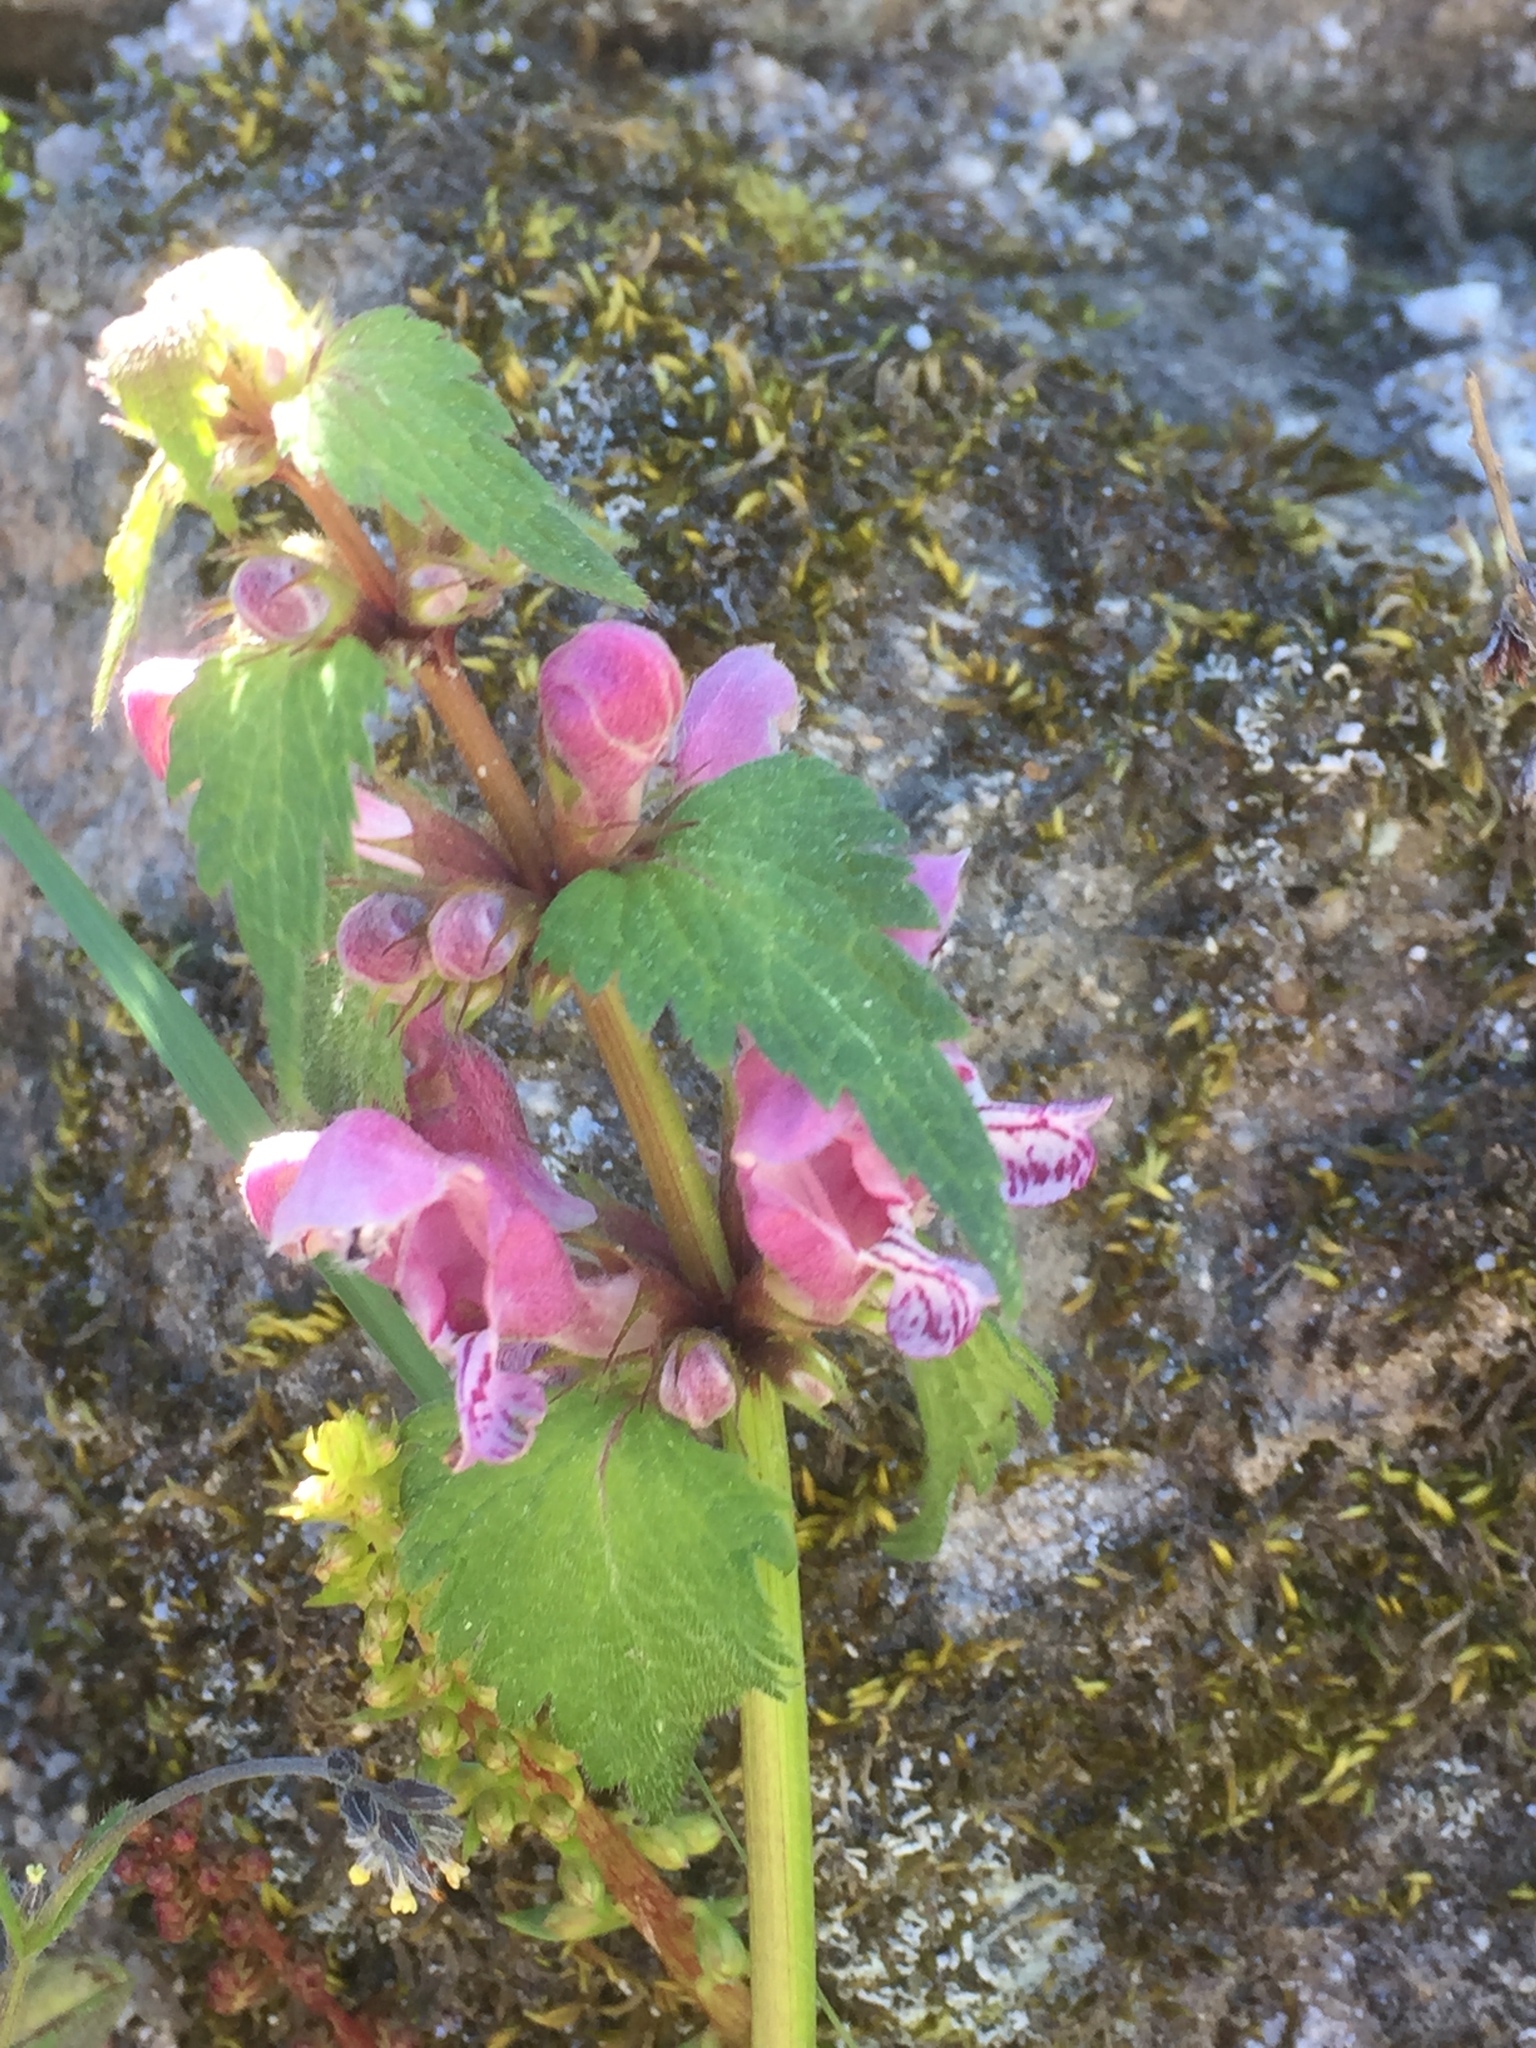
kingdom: Plantae
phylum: Tracheophyta
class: Magnoliopsida
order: Lamiales
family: Lamiaceae
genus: Lamium
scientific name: Lamium maculatum
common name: Spotted dead-nettle
